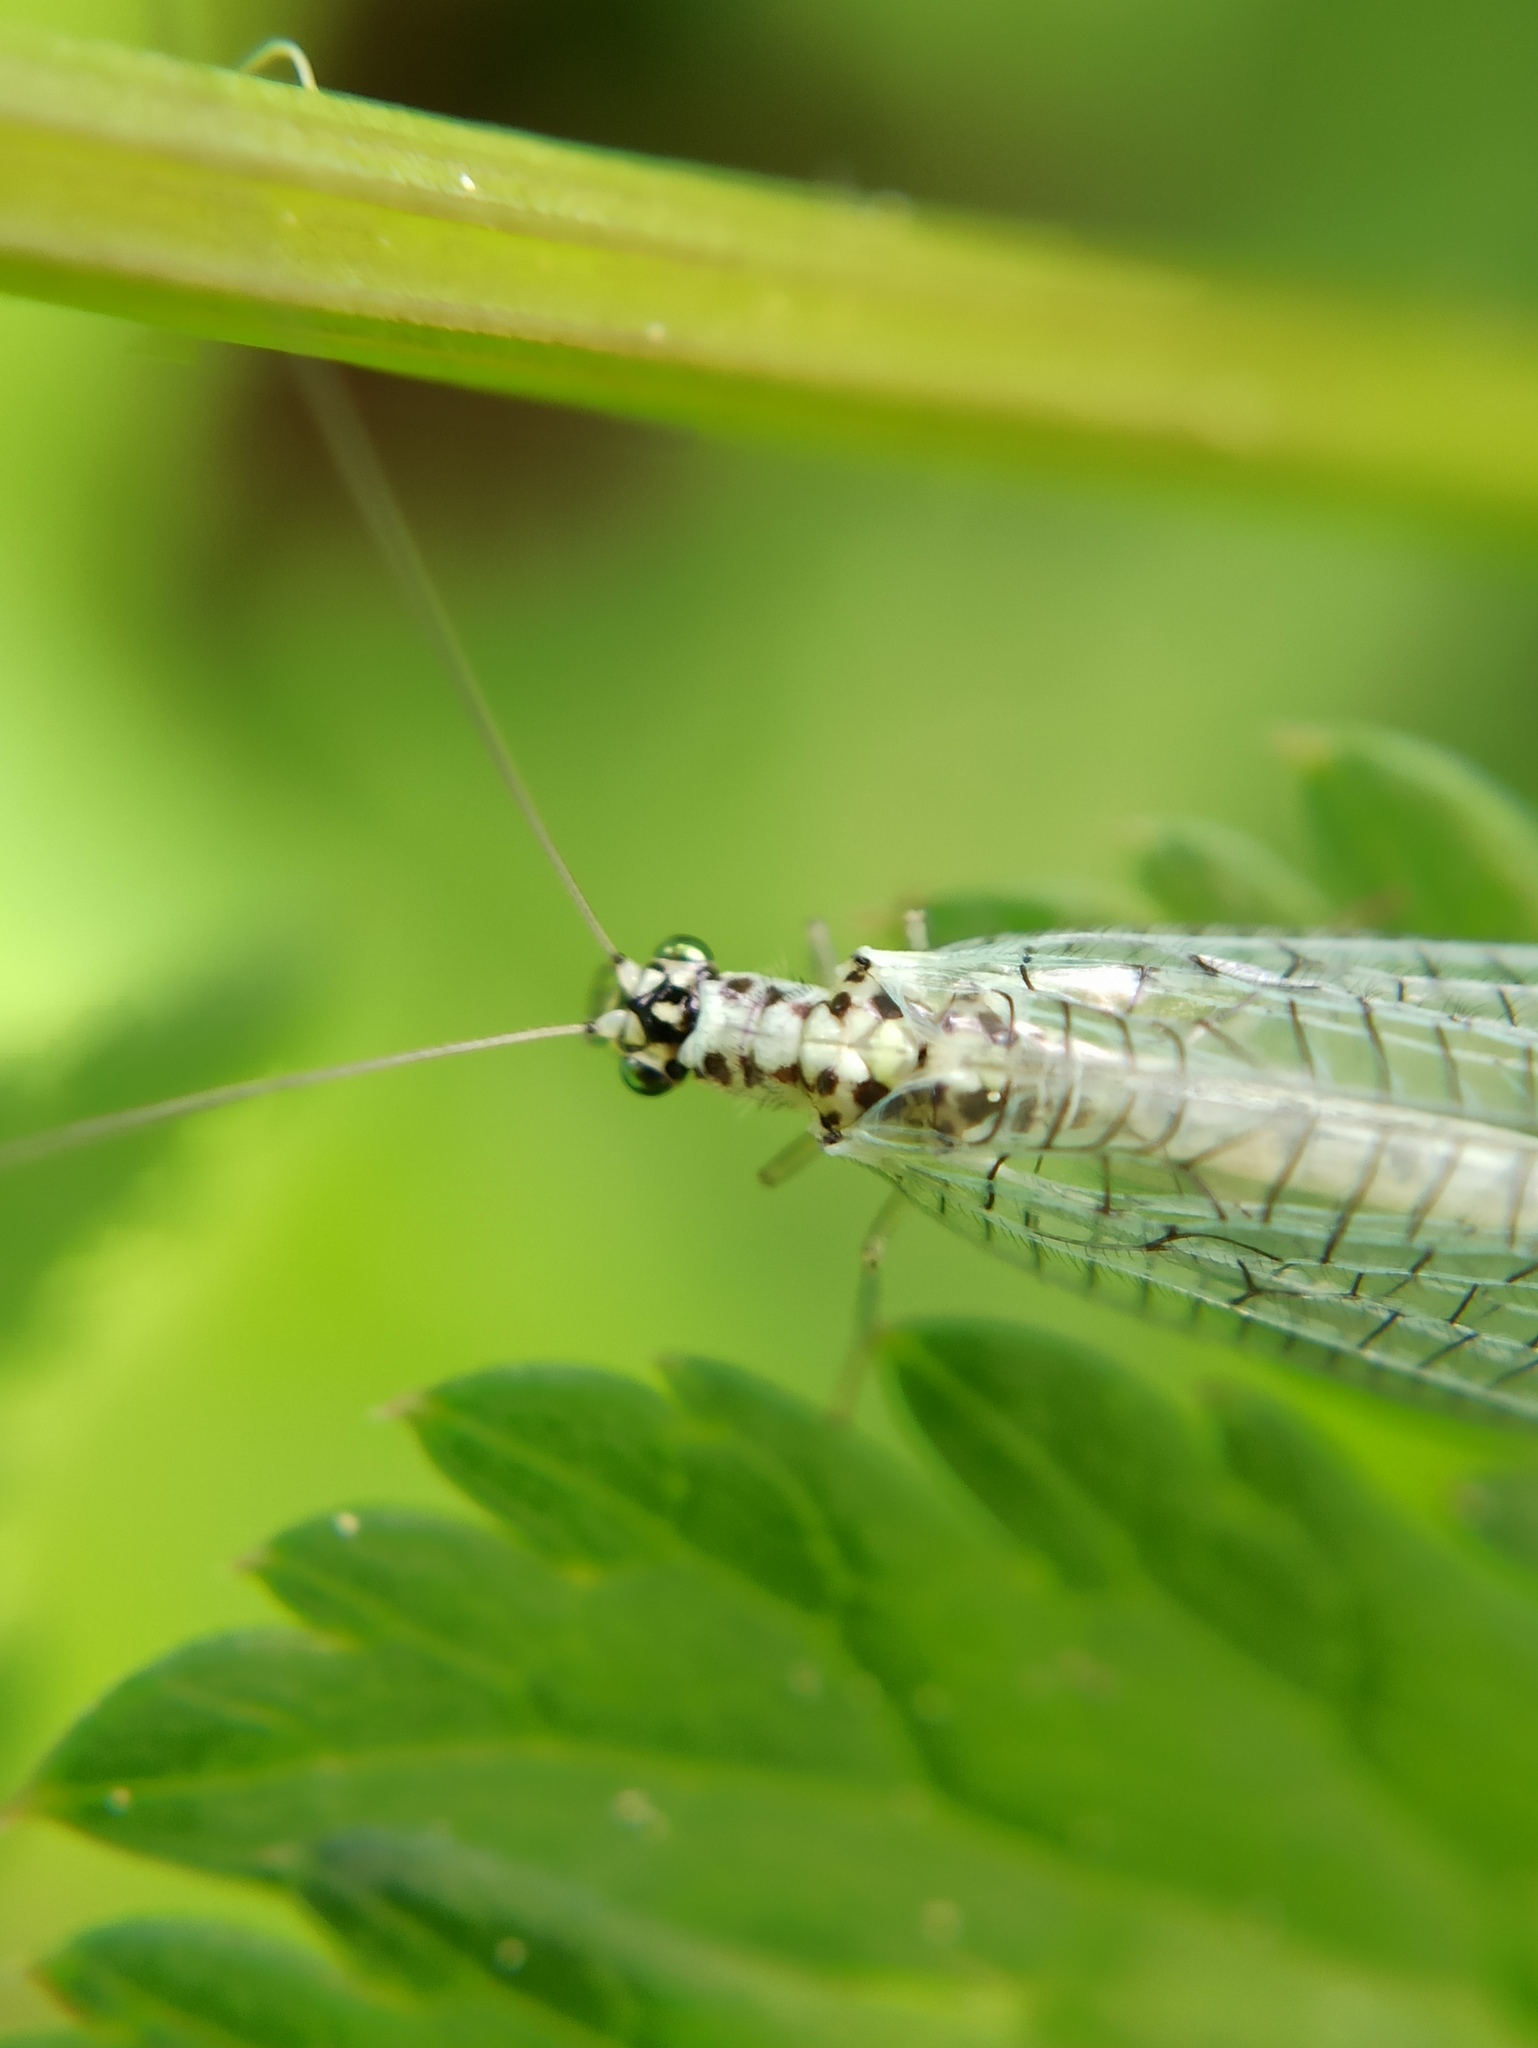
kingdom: Animalia
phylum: Arthropoda
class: Insecta
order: Neuroptera
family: Chrysopidae
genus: Chrysopa
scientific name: Chrysopa perla
